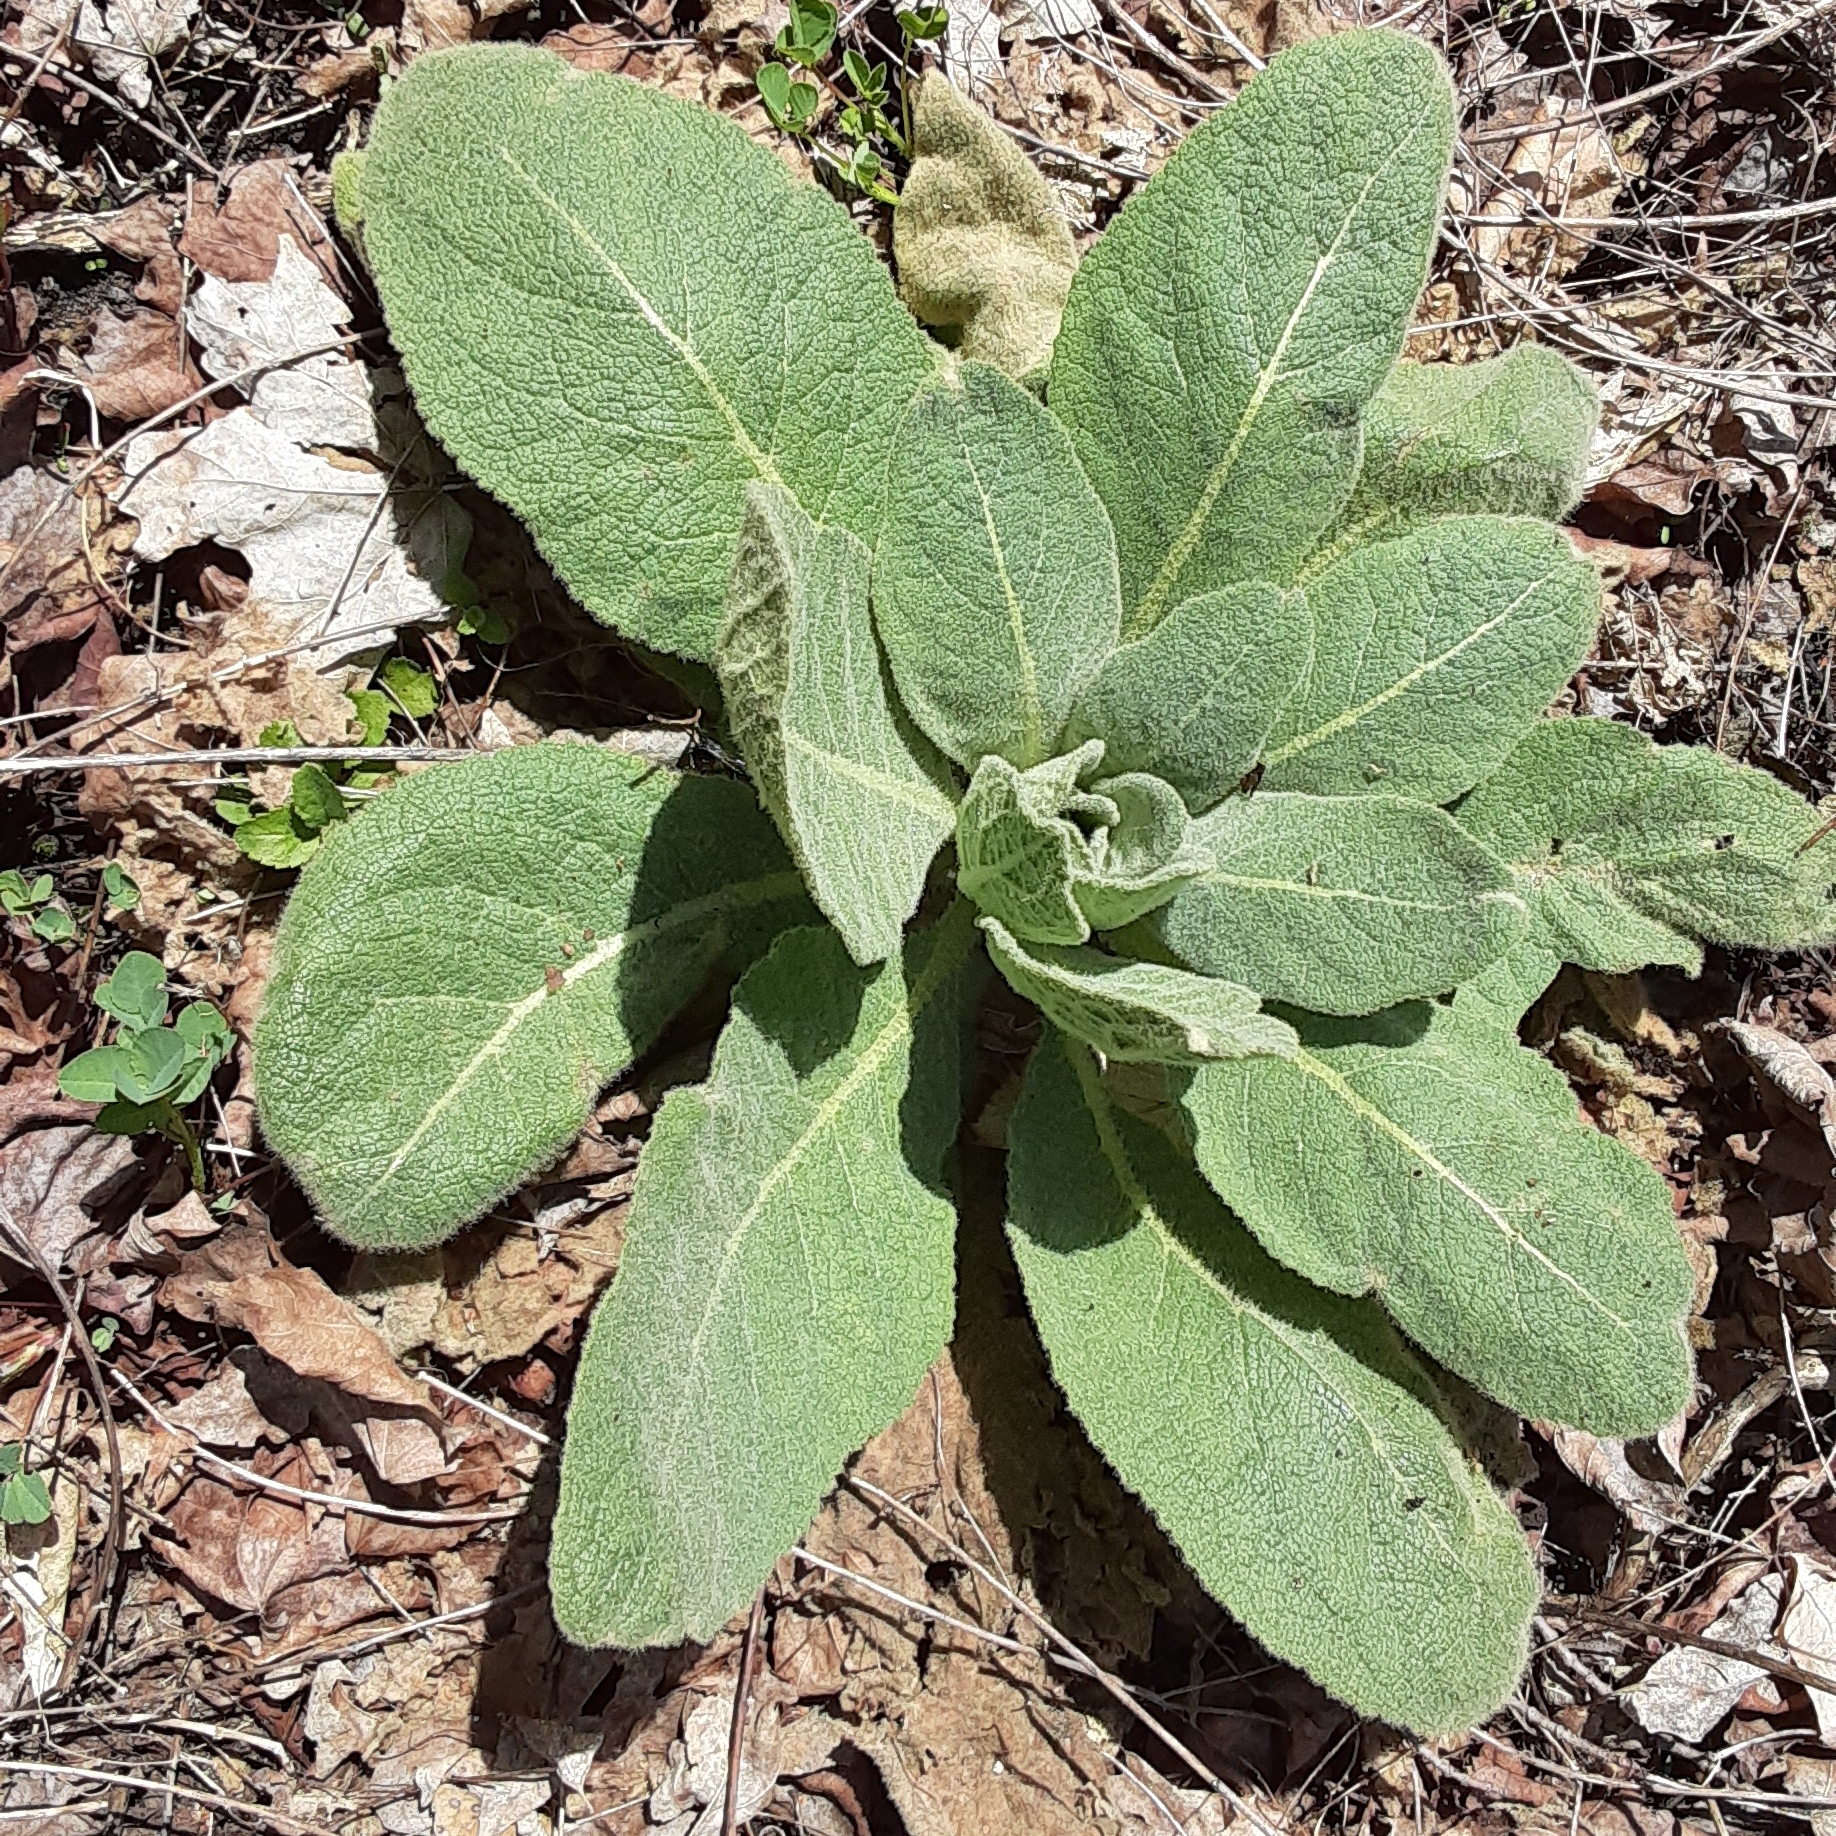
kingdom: Plantae
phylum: Tracheophyta
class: Magnoliopsida
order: Lamiales
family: Scrophulariaceae
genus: Verbascum
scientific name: Verbascum thapsus
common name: Common mullein
